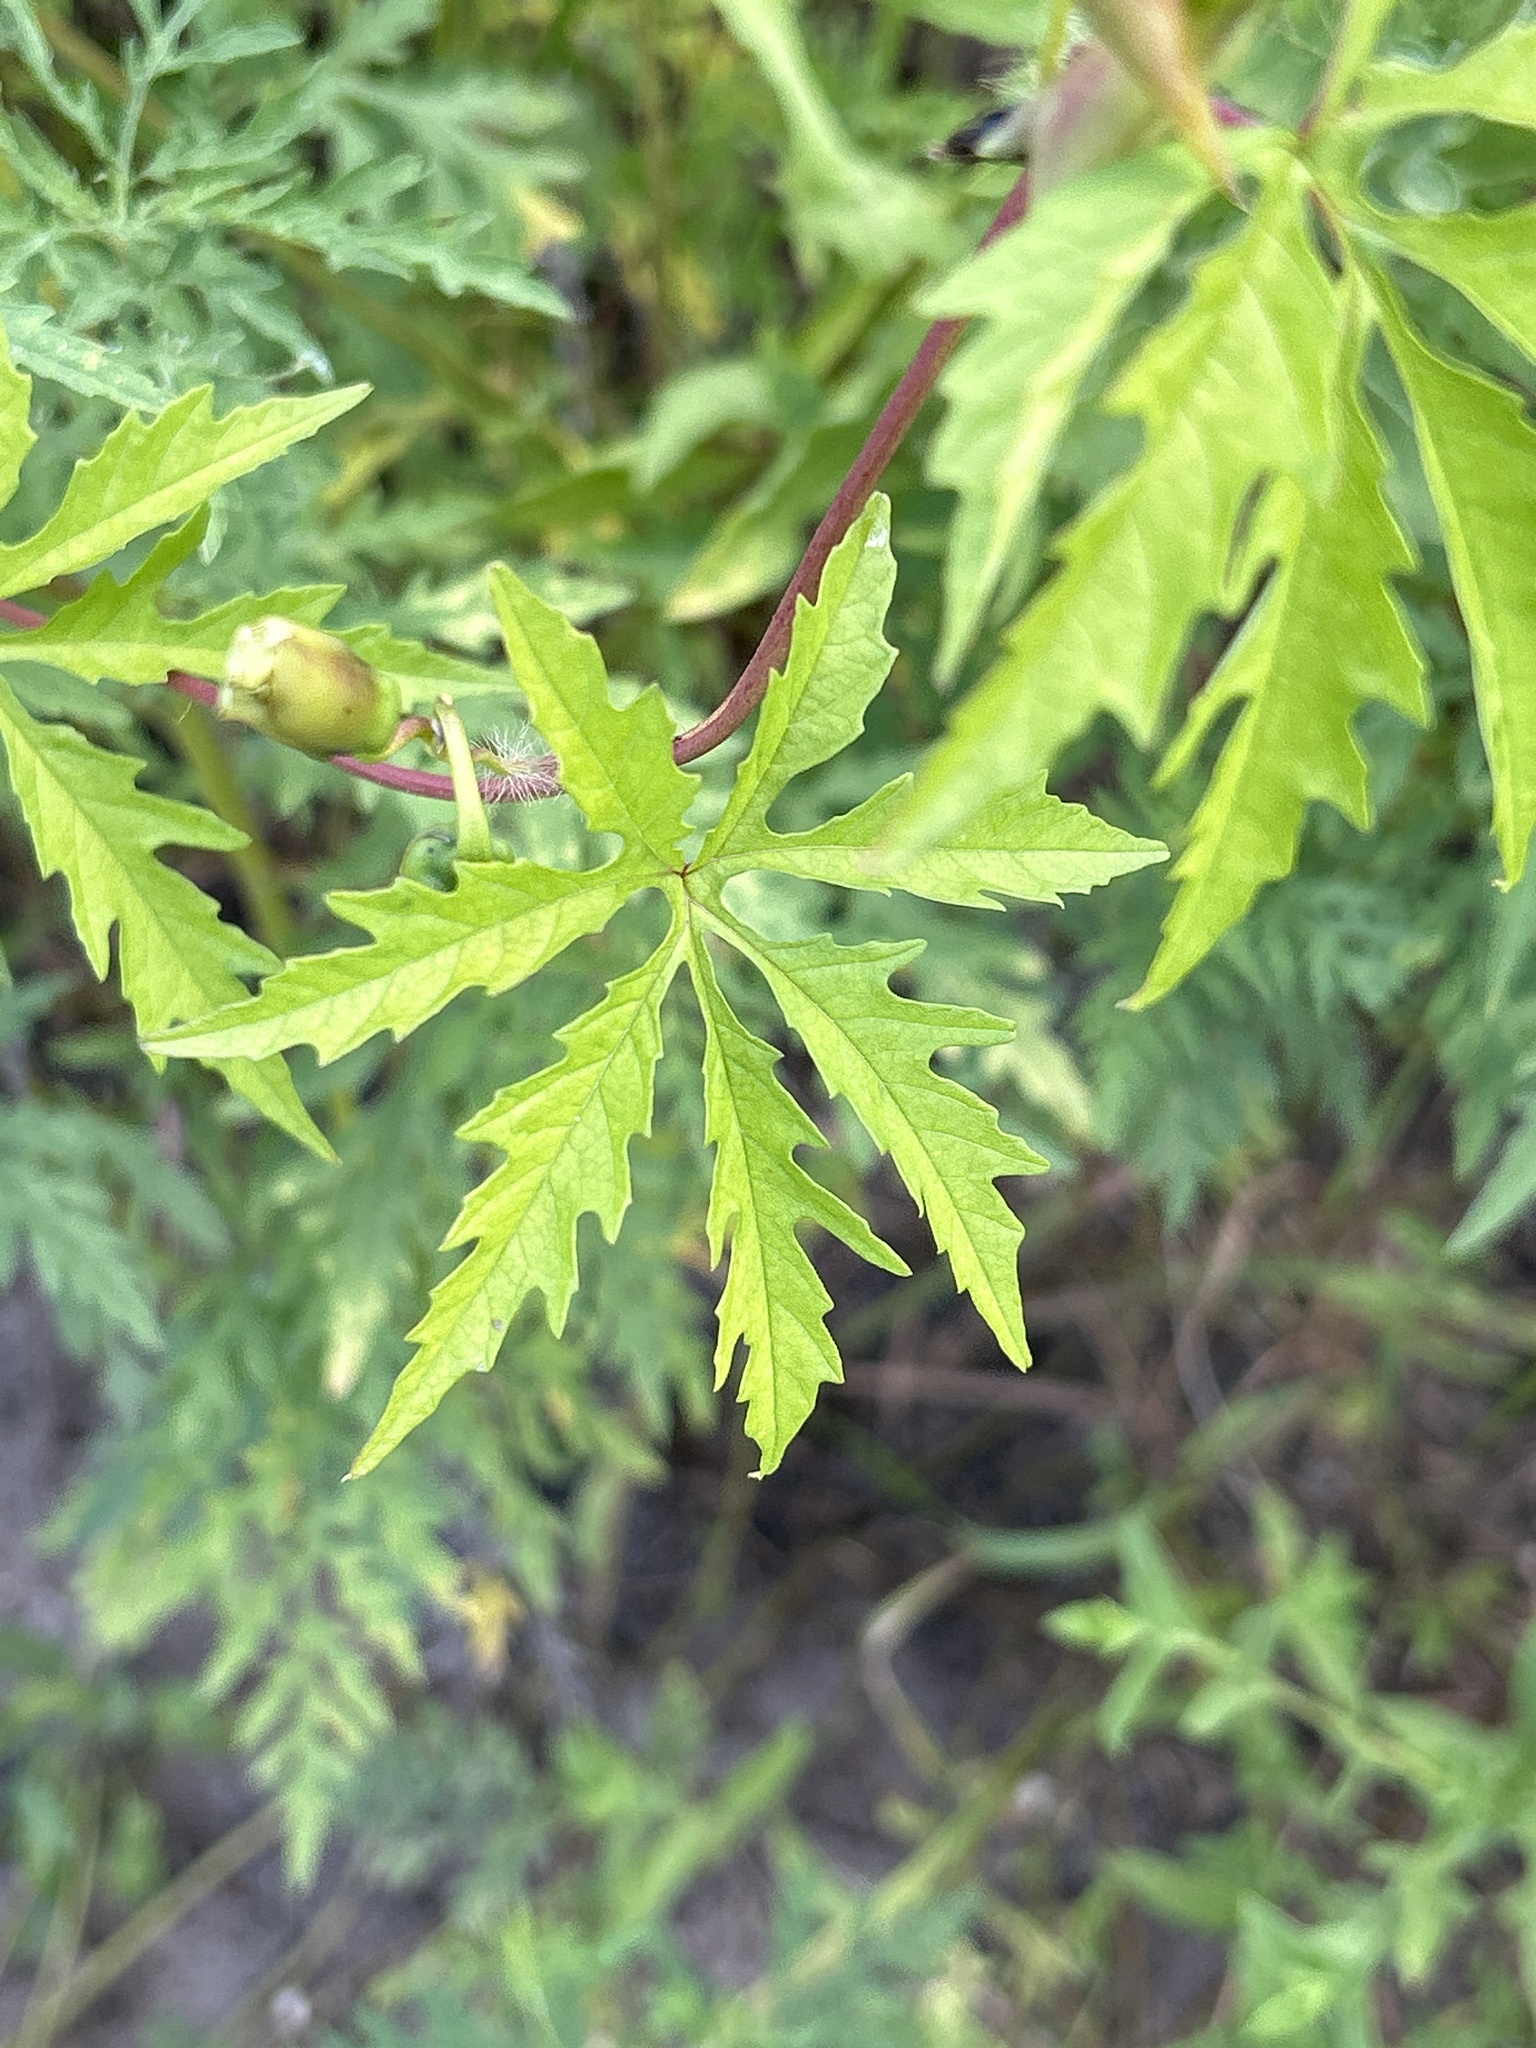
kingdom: Plantae
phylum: Tracheophyta
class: Magnoliopsida
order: Solanales
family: Convolvulaceae
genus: Distimake
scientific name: Distimake dissectus
